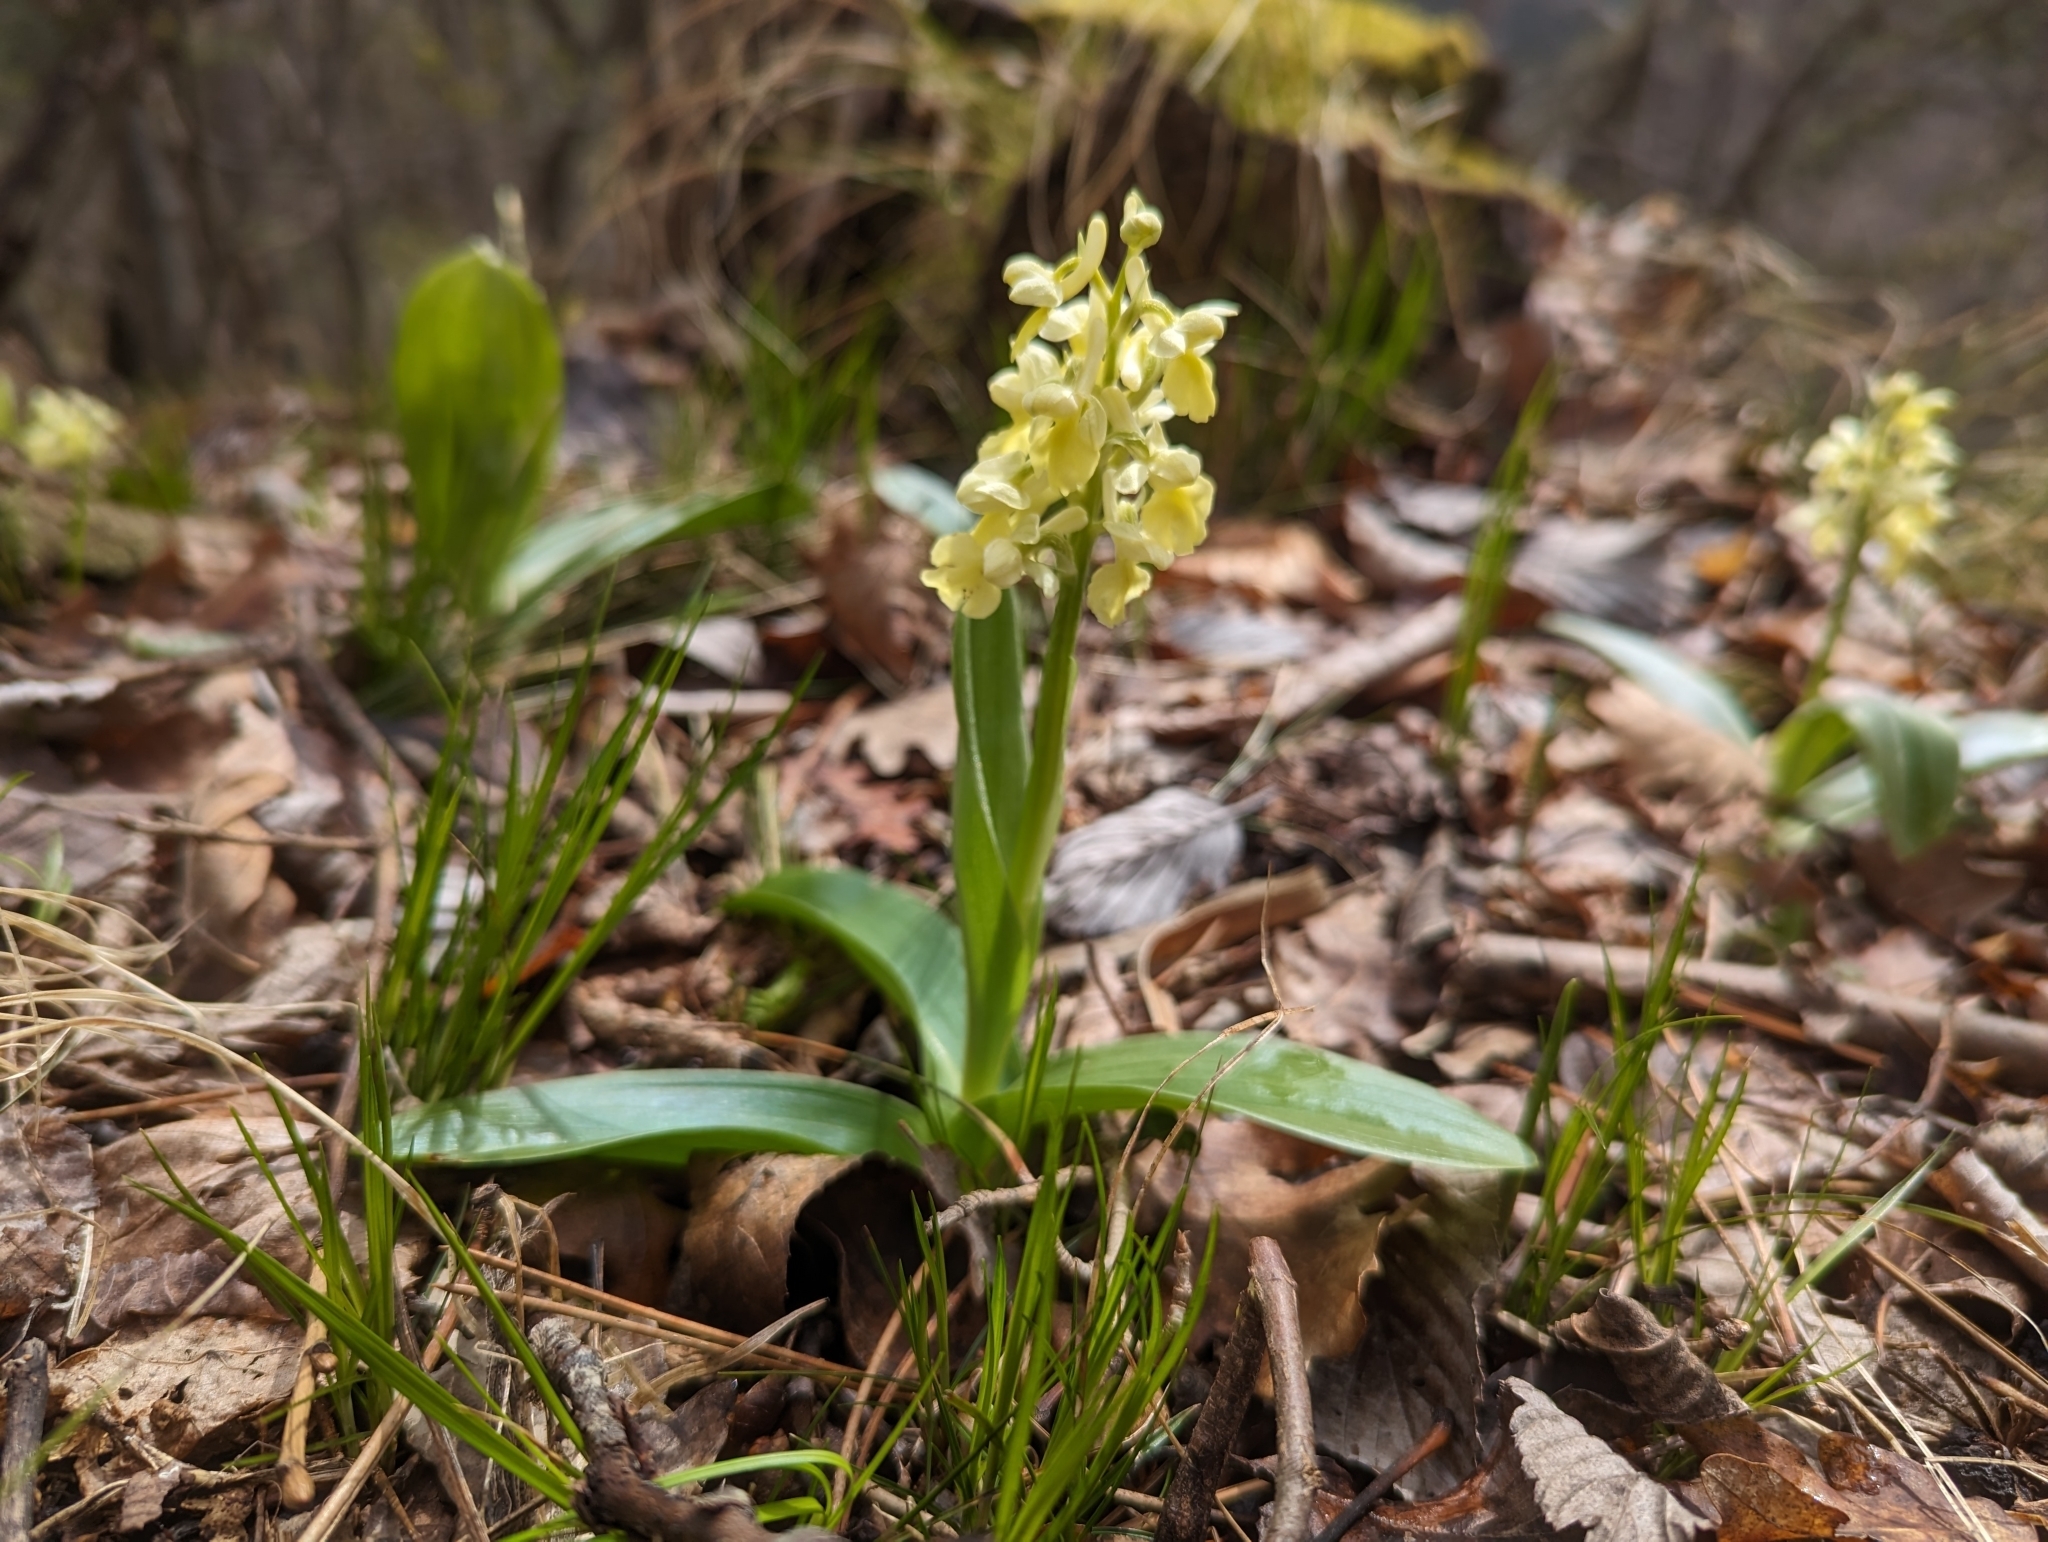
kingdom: Plantae
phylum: Tracheophyta
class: Liliopsida
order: Asparagales
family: Orchidaceae
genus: Orchis
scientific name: Orchis pallens
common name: Pale-flowered orchid
